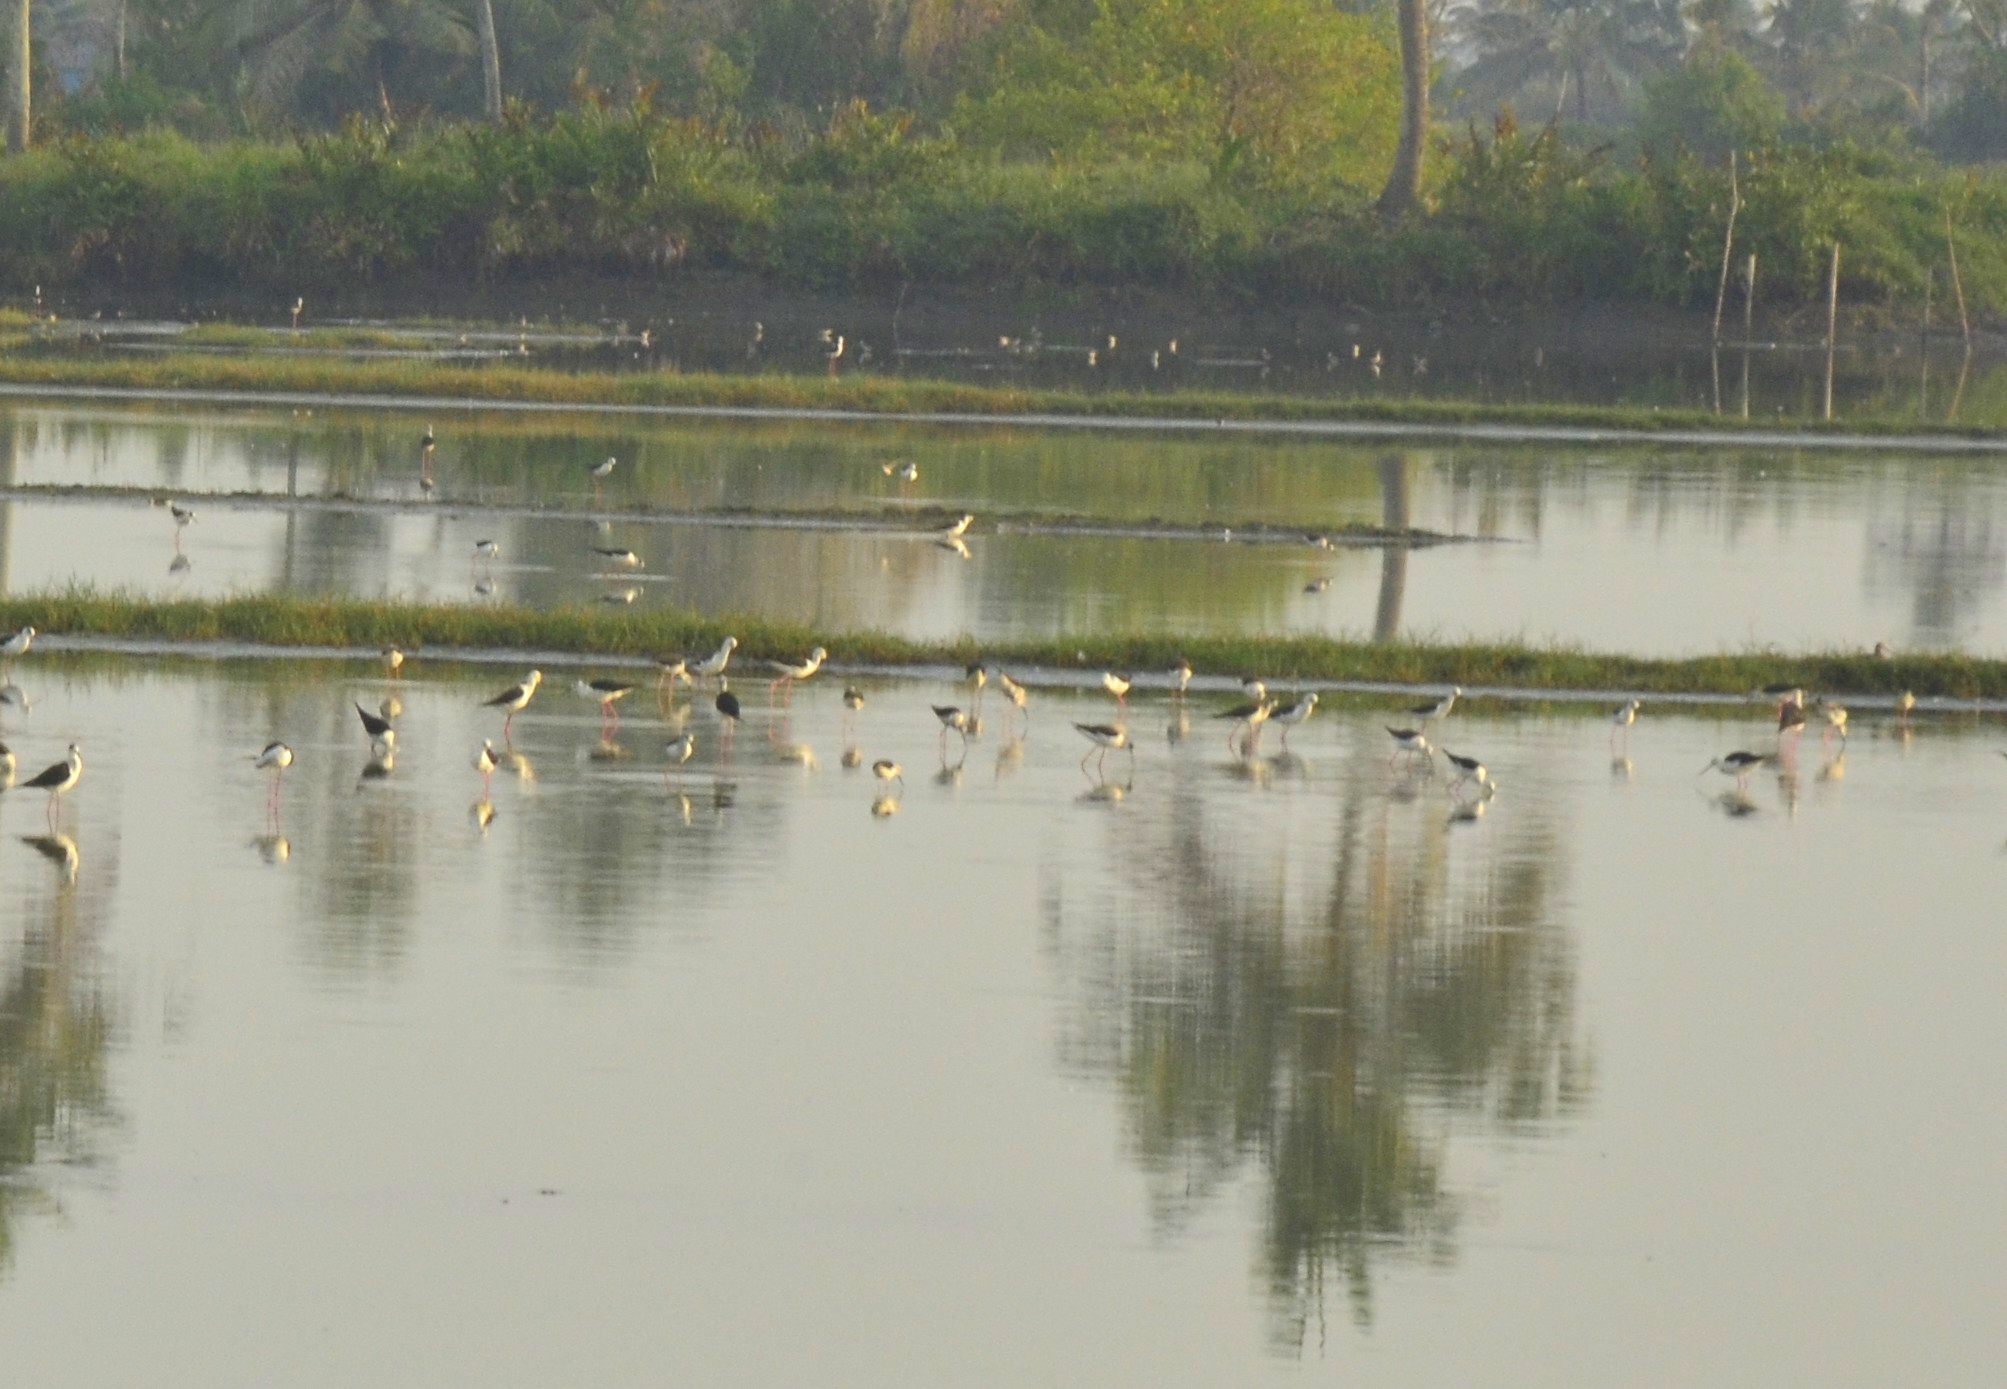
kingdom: Animalia
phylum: Chordata
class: Aves
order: Charadriiformes
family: Recurvirostridae
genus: Himantopus
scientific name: Himantopus himantopus
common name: Black-winged stilt
